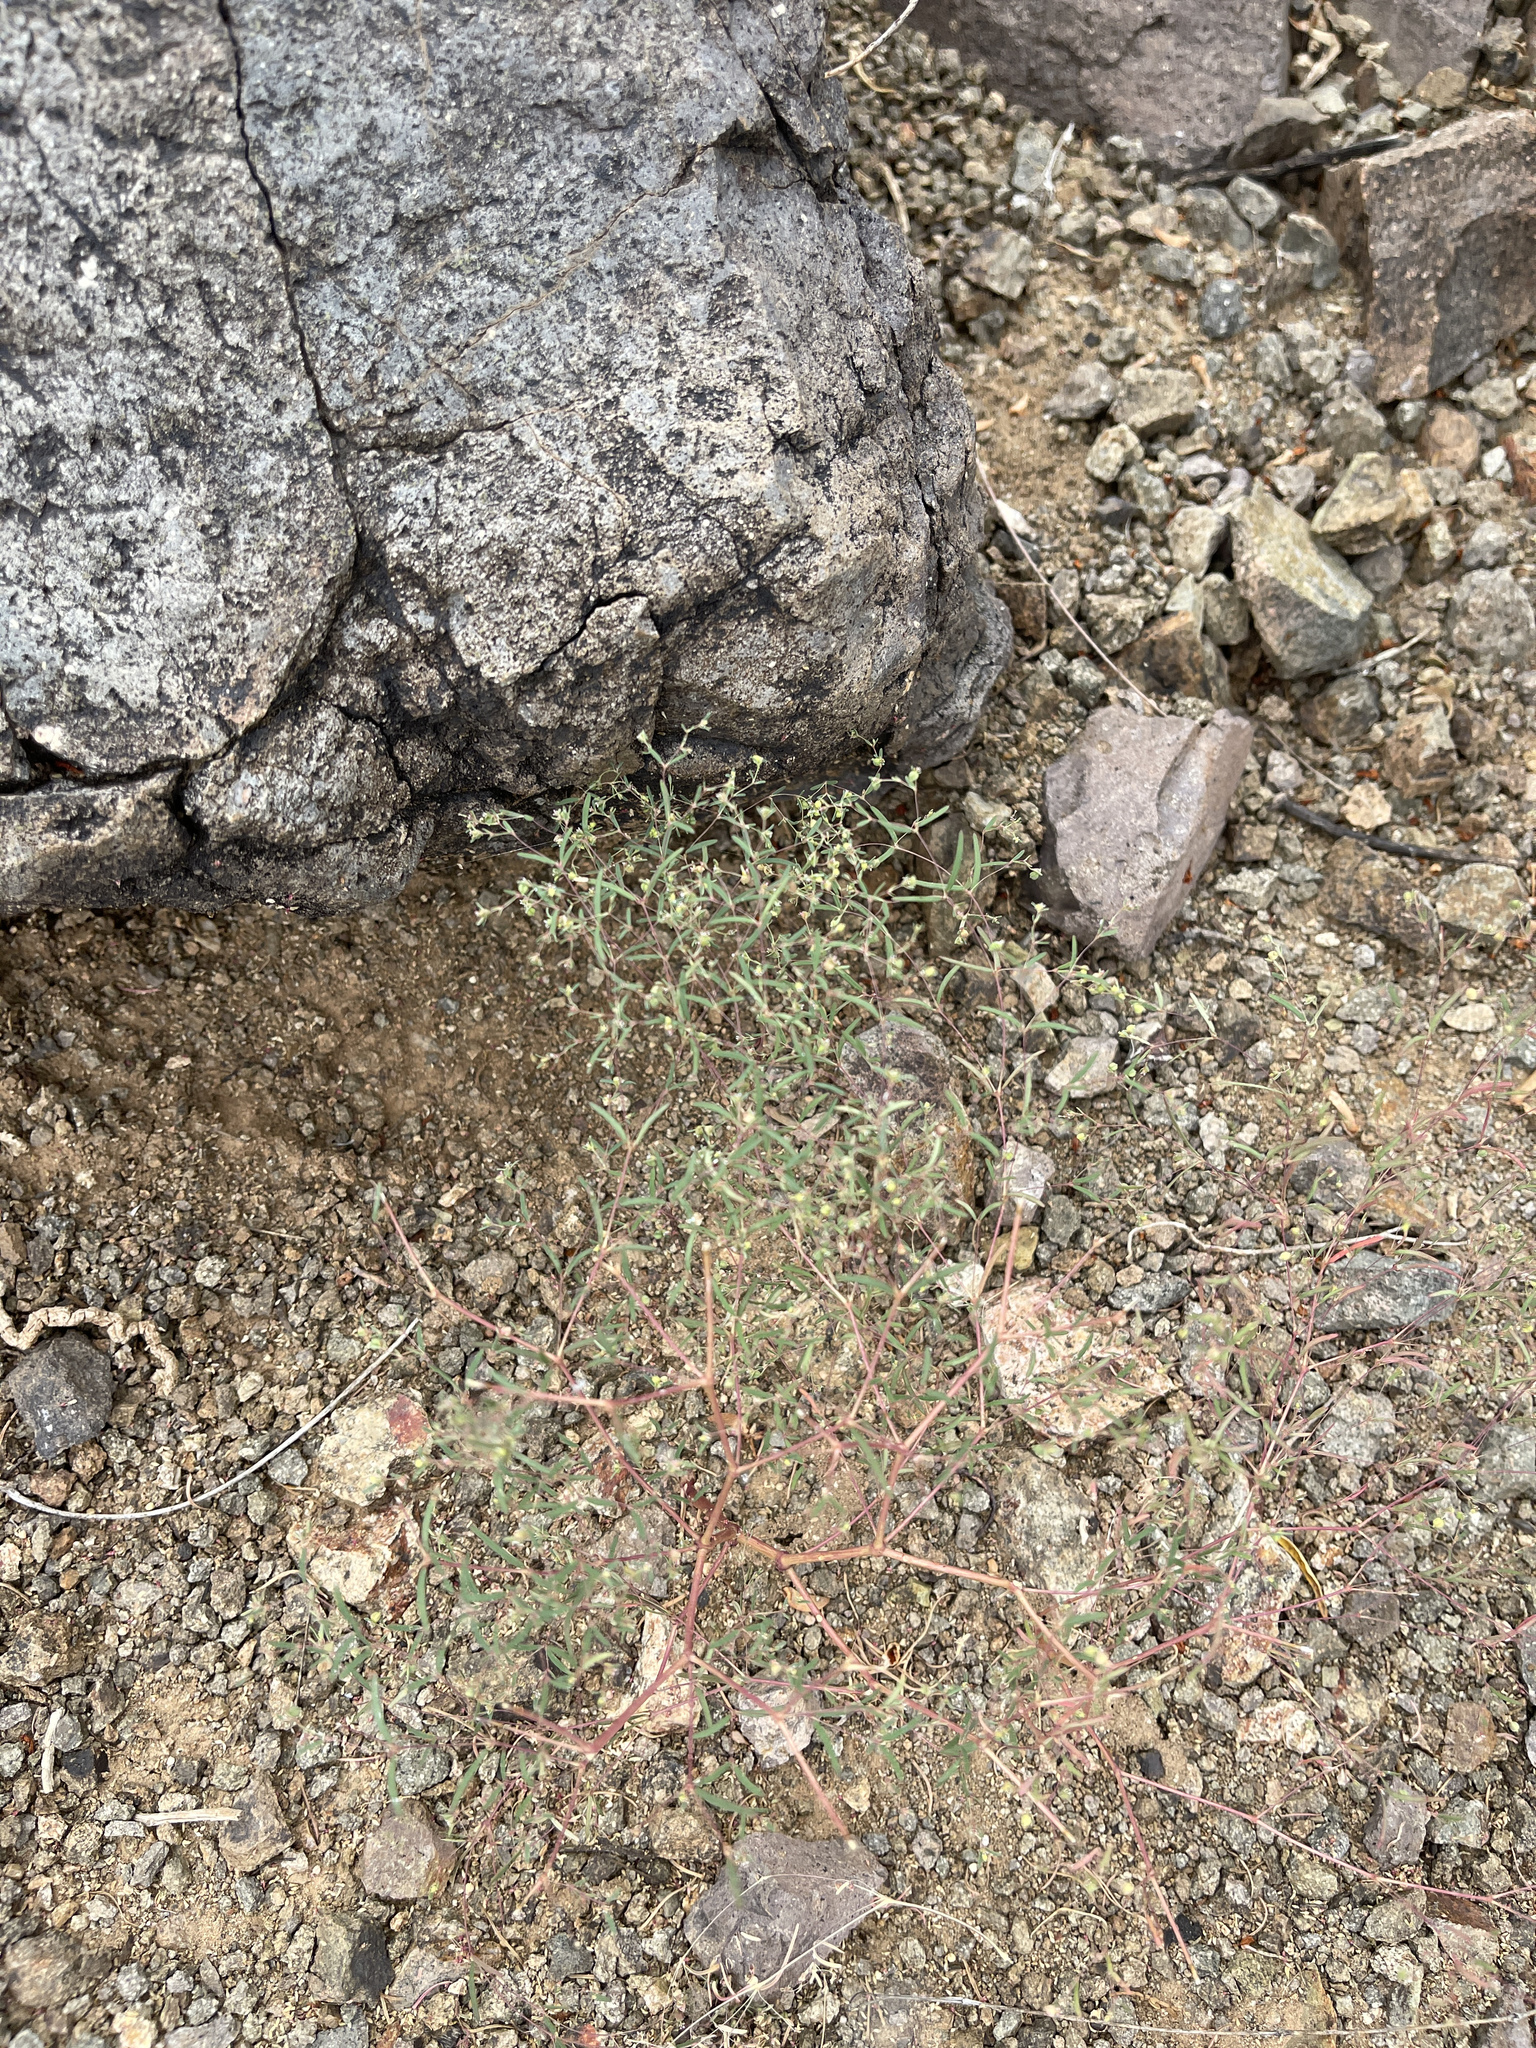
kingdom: Plantae
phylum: Tracheophyta
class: Magnoliopsida
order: Malpighiales
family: Euphorbiaceae
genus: Euphorbia
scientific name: Euphorbia gracillima
